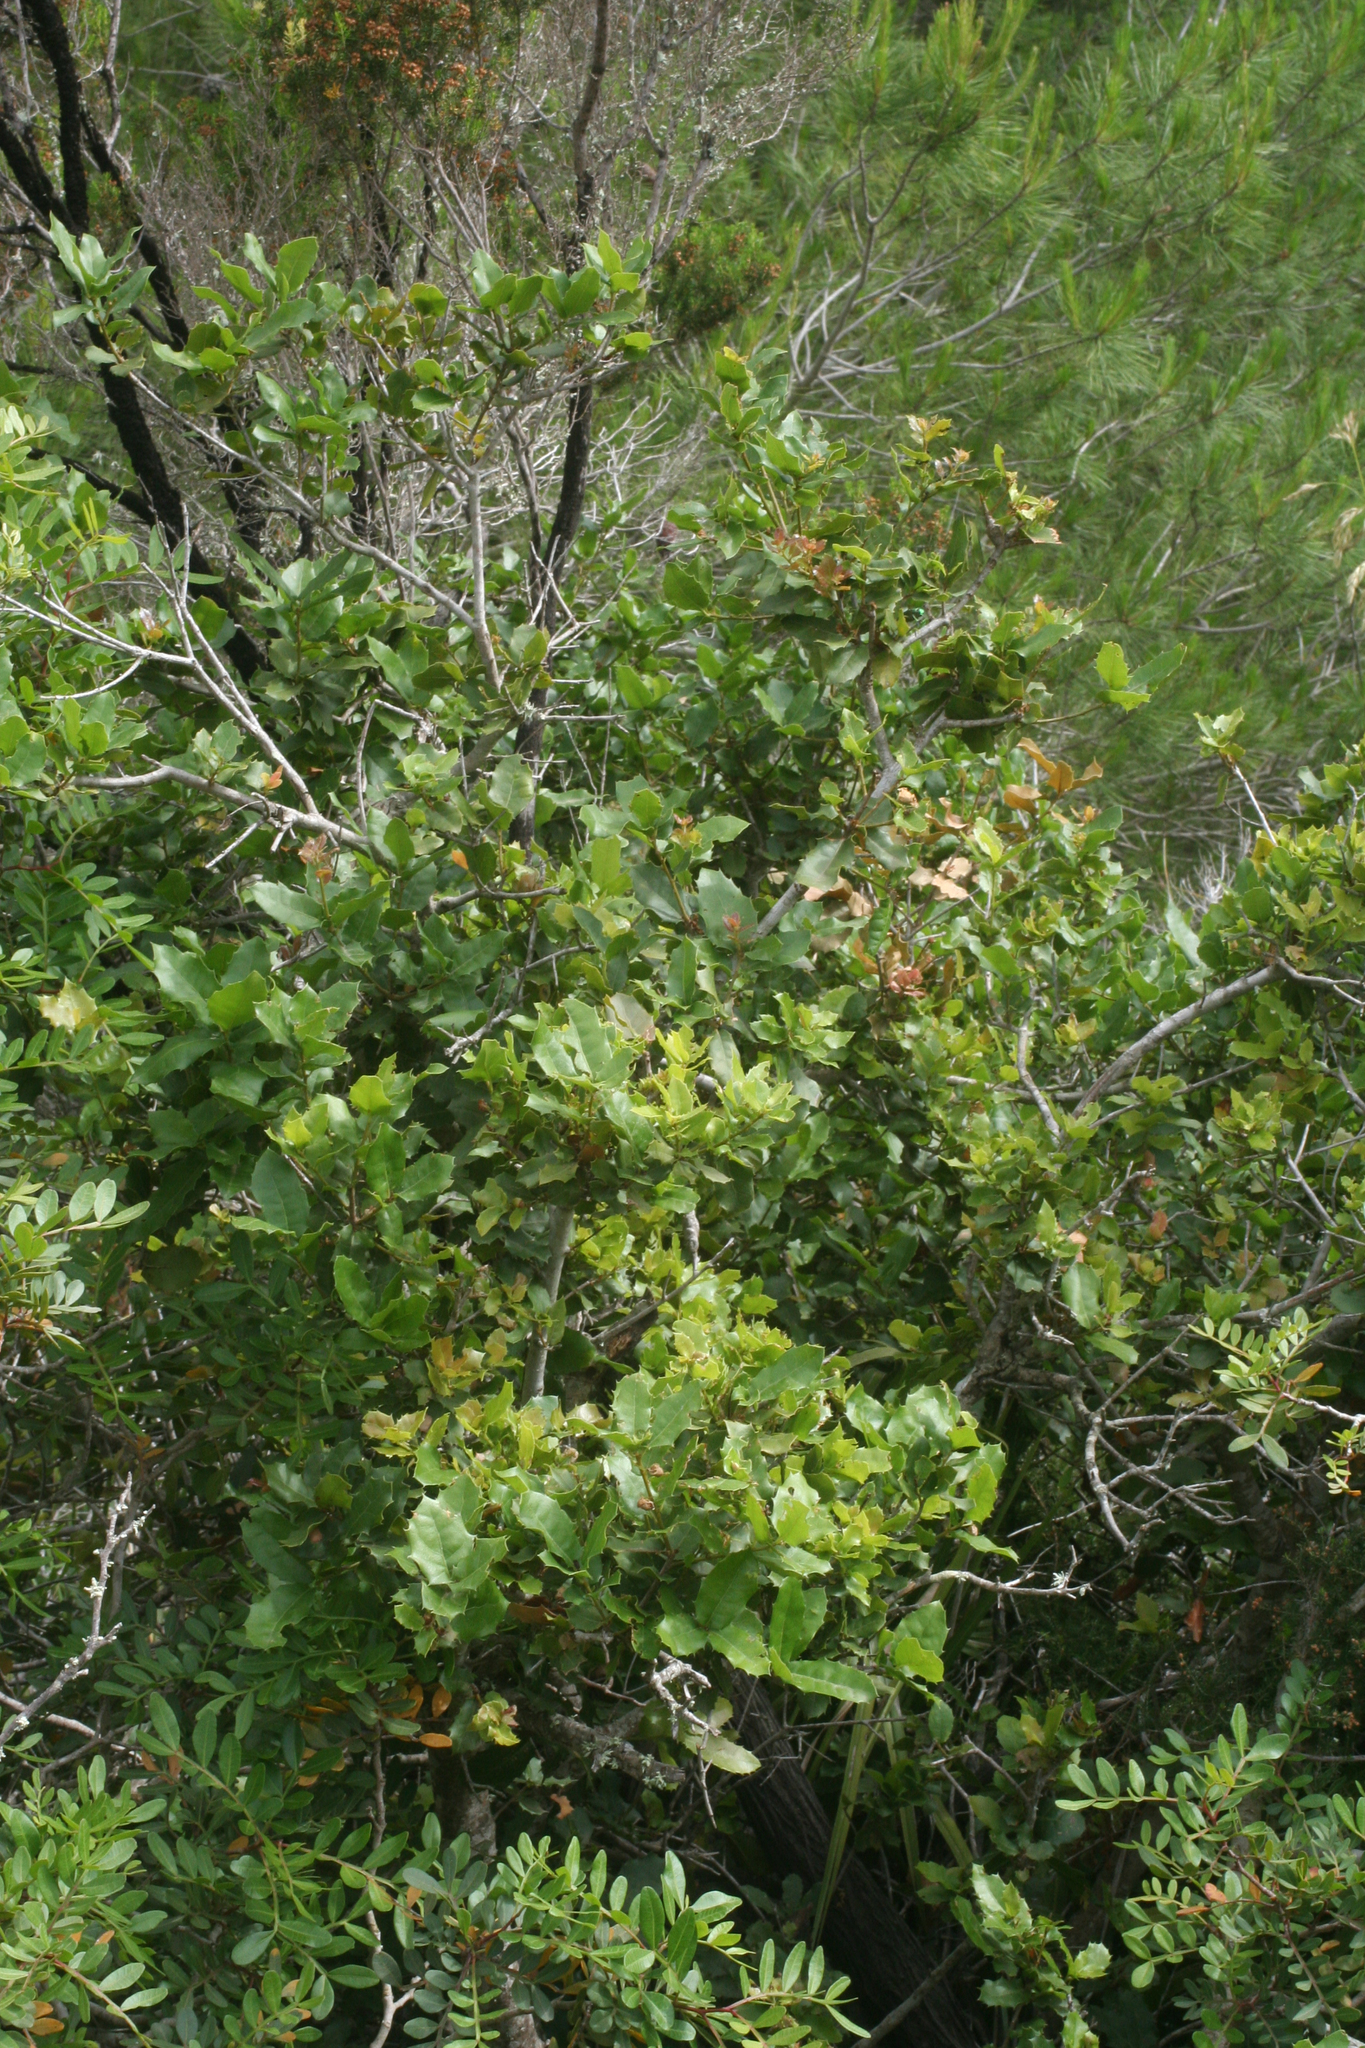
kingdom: Plantae
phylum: Tracheophyta
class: Magnoliopsida
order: Fagales
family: Fagaceae
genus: Quercus
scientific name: Quercus rotundifolia
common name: Holm oak
